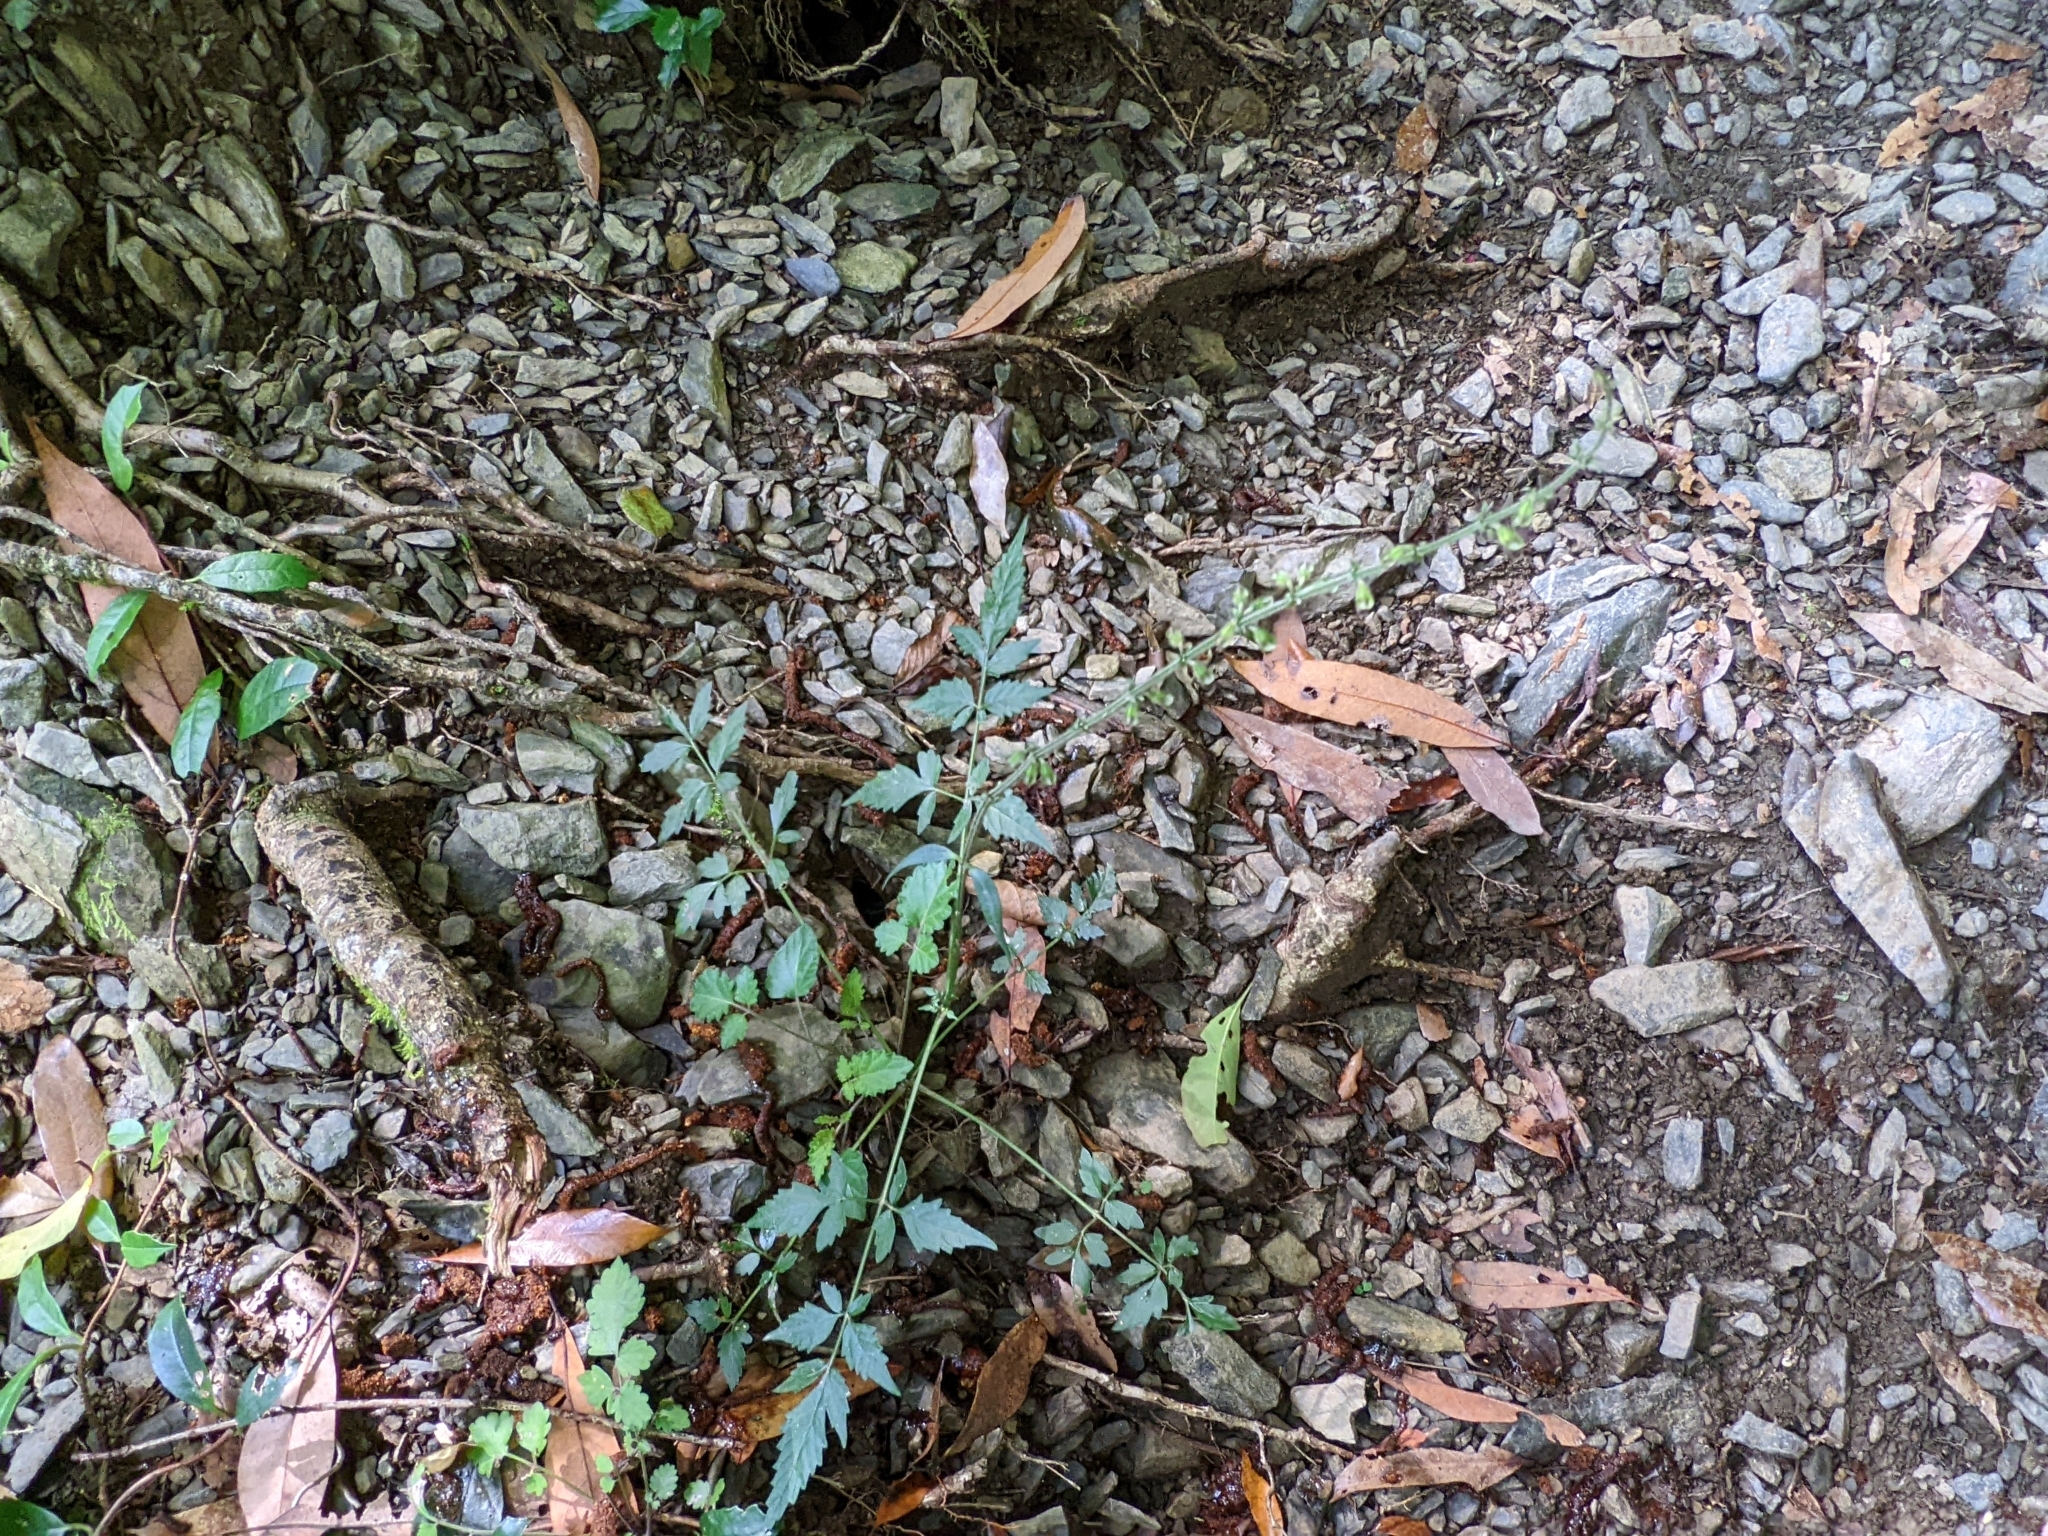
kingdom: Plantae
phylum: Tracheophyta
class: Magnoliopsida
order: Lamiales
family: Lamiaceae
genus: Salvia
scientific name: Salvia japonica
